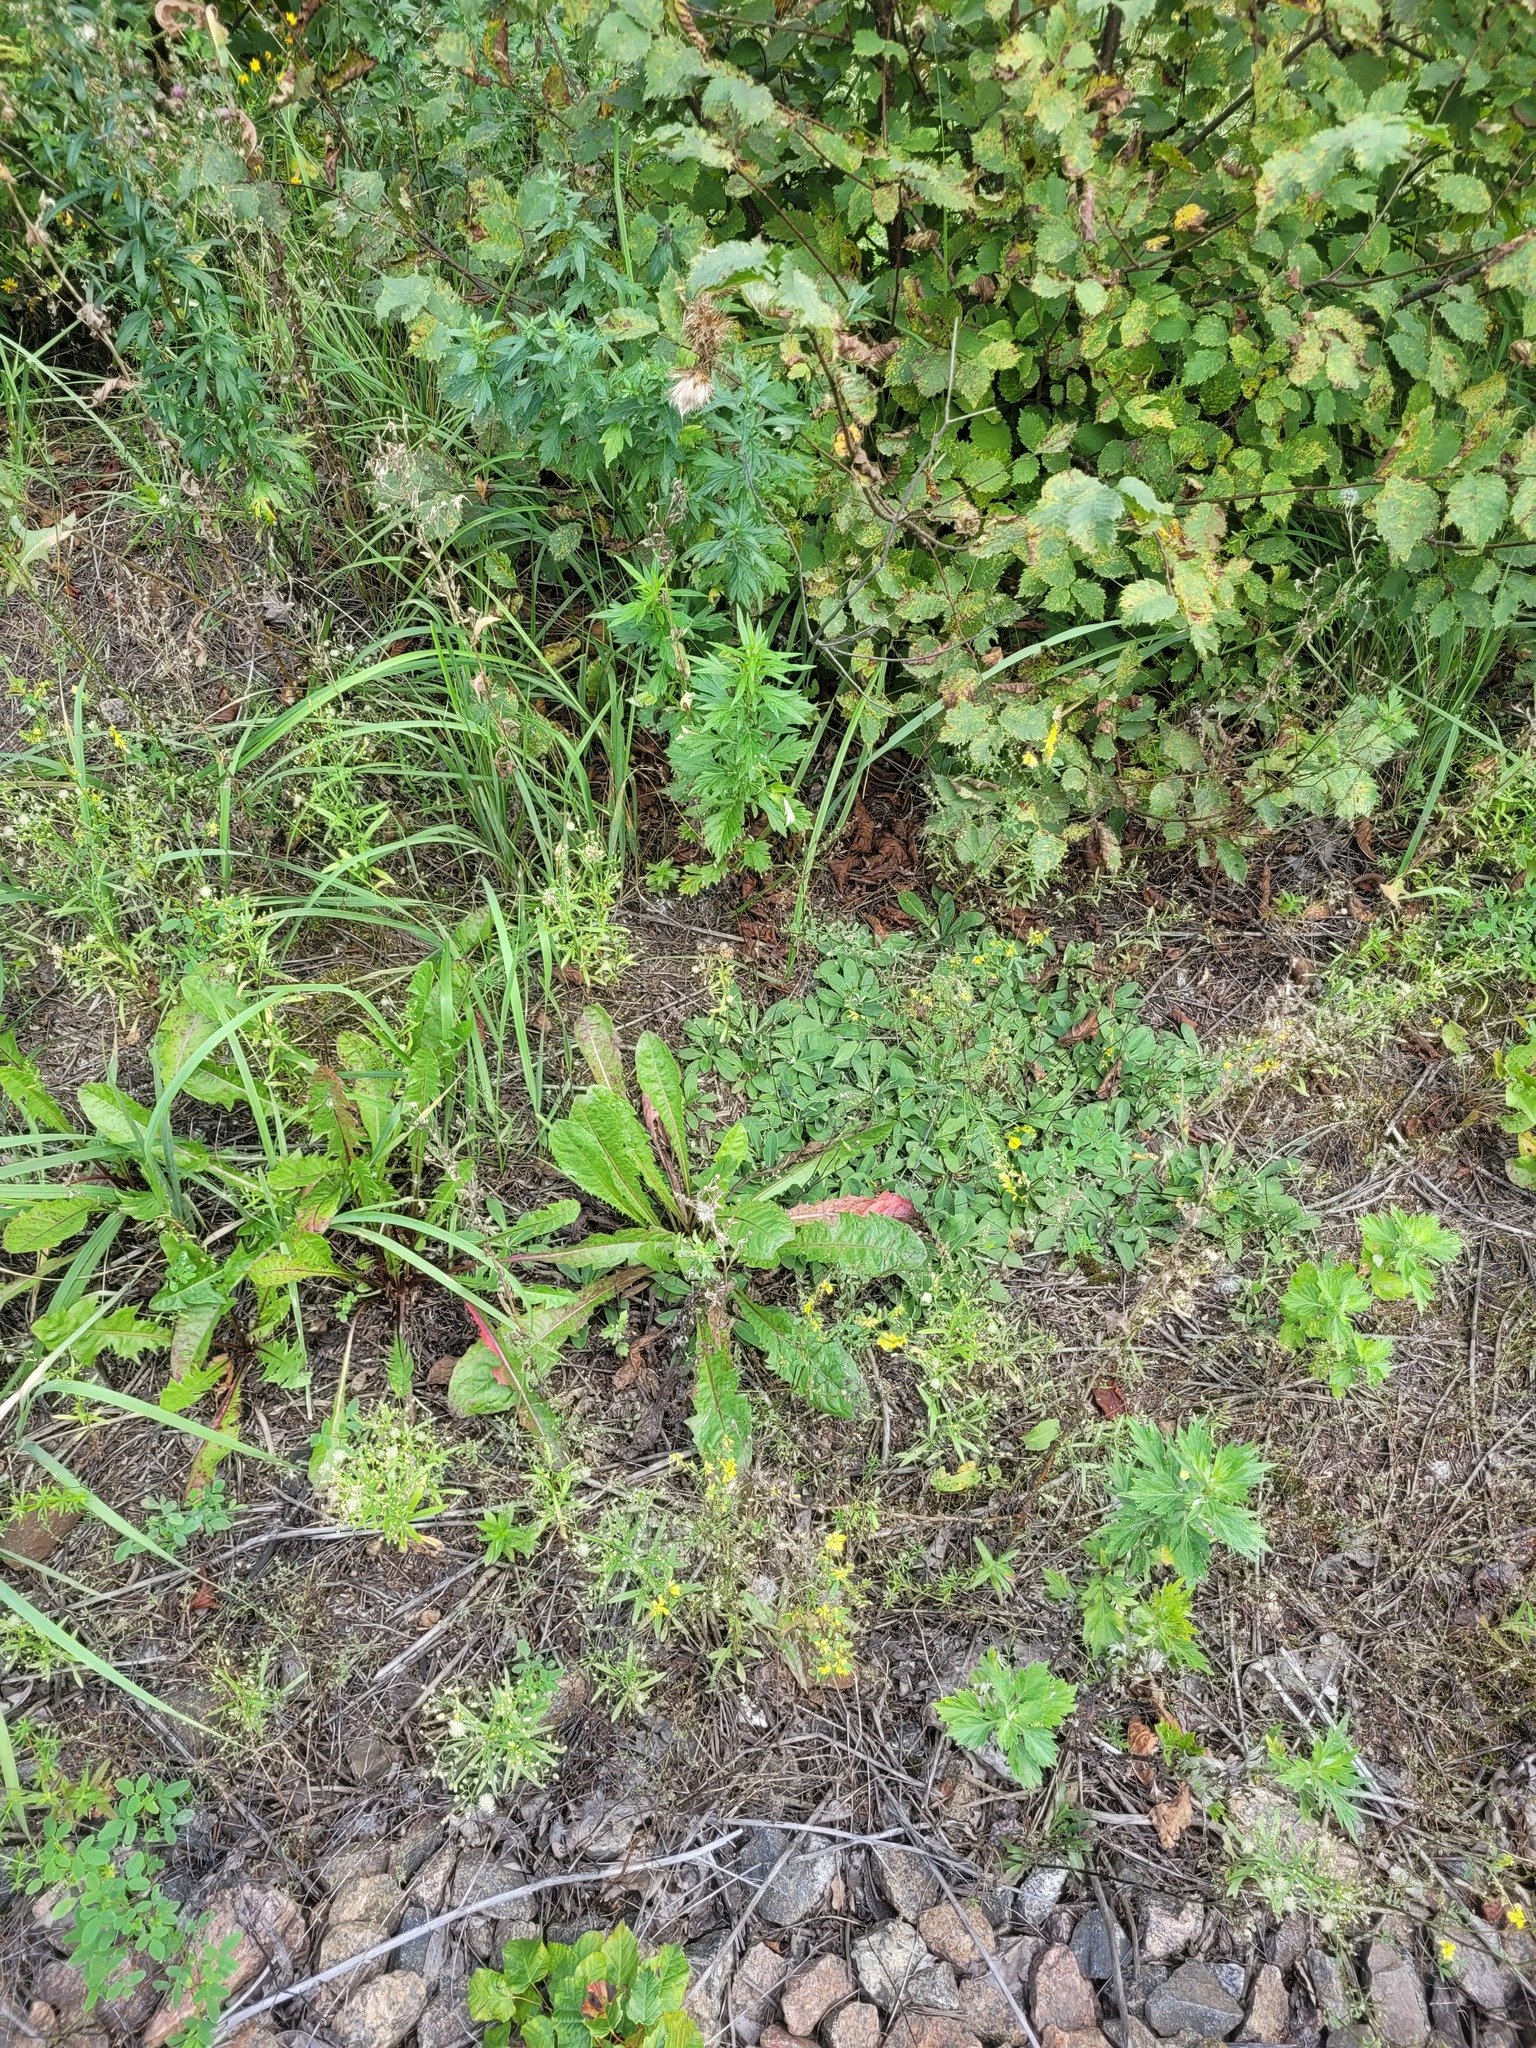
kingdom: Plantae
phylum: Tracheophyta
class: Magnoliopsida
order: Asterales
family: Asteraceae
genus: Taraxacum
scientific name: Taraxacum officinale
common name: Common dandelion
